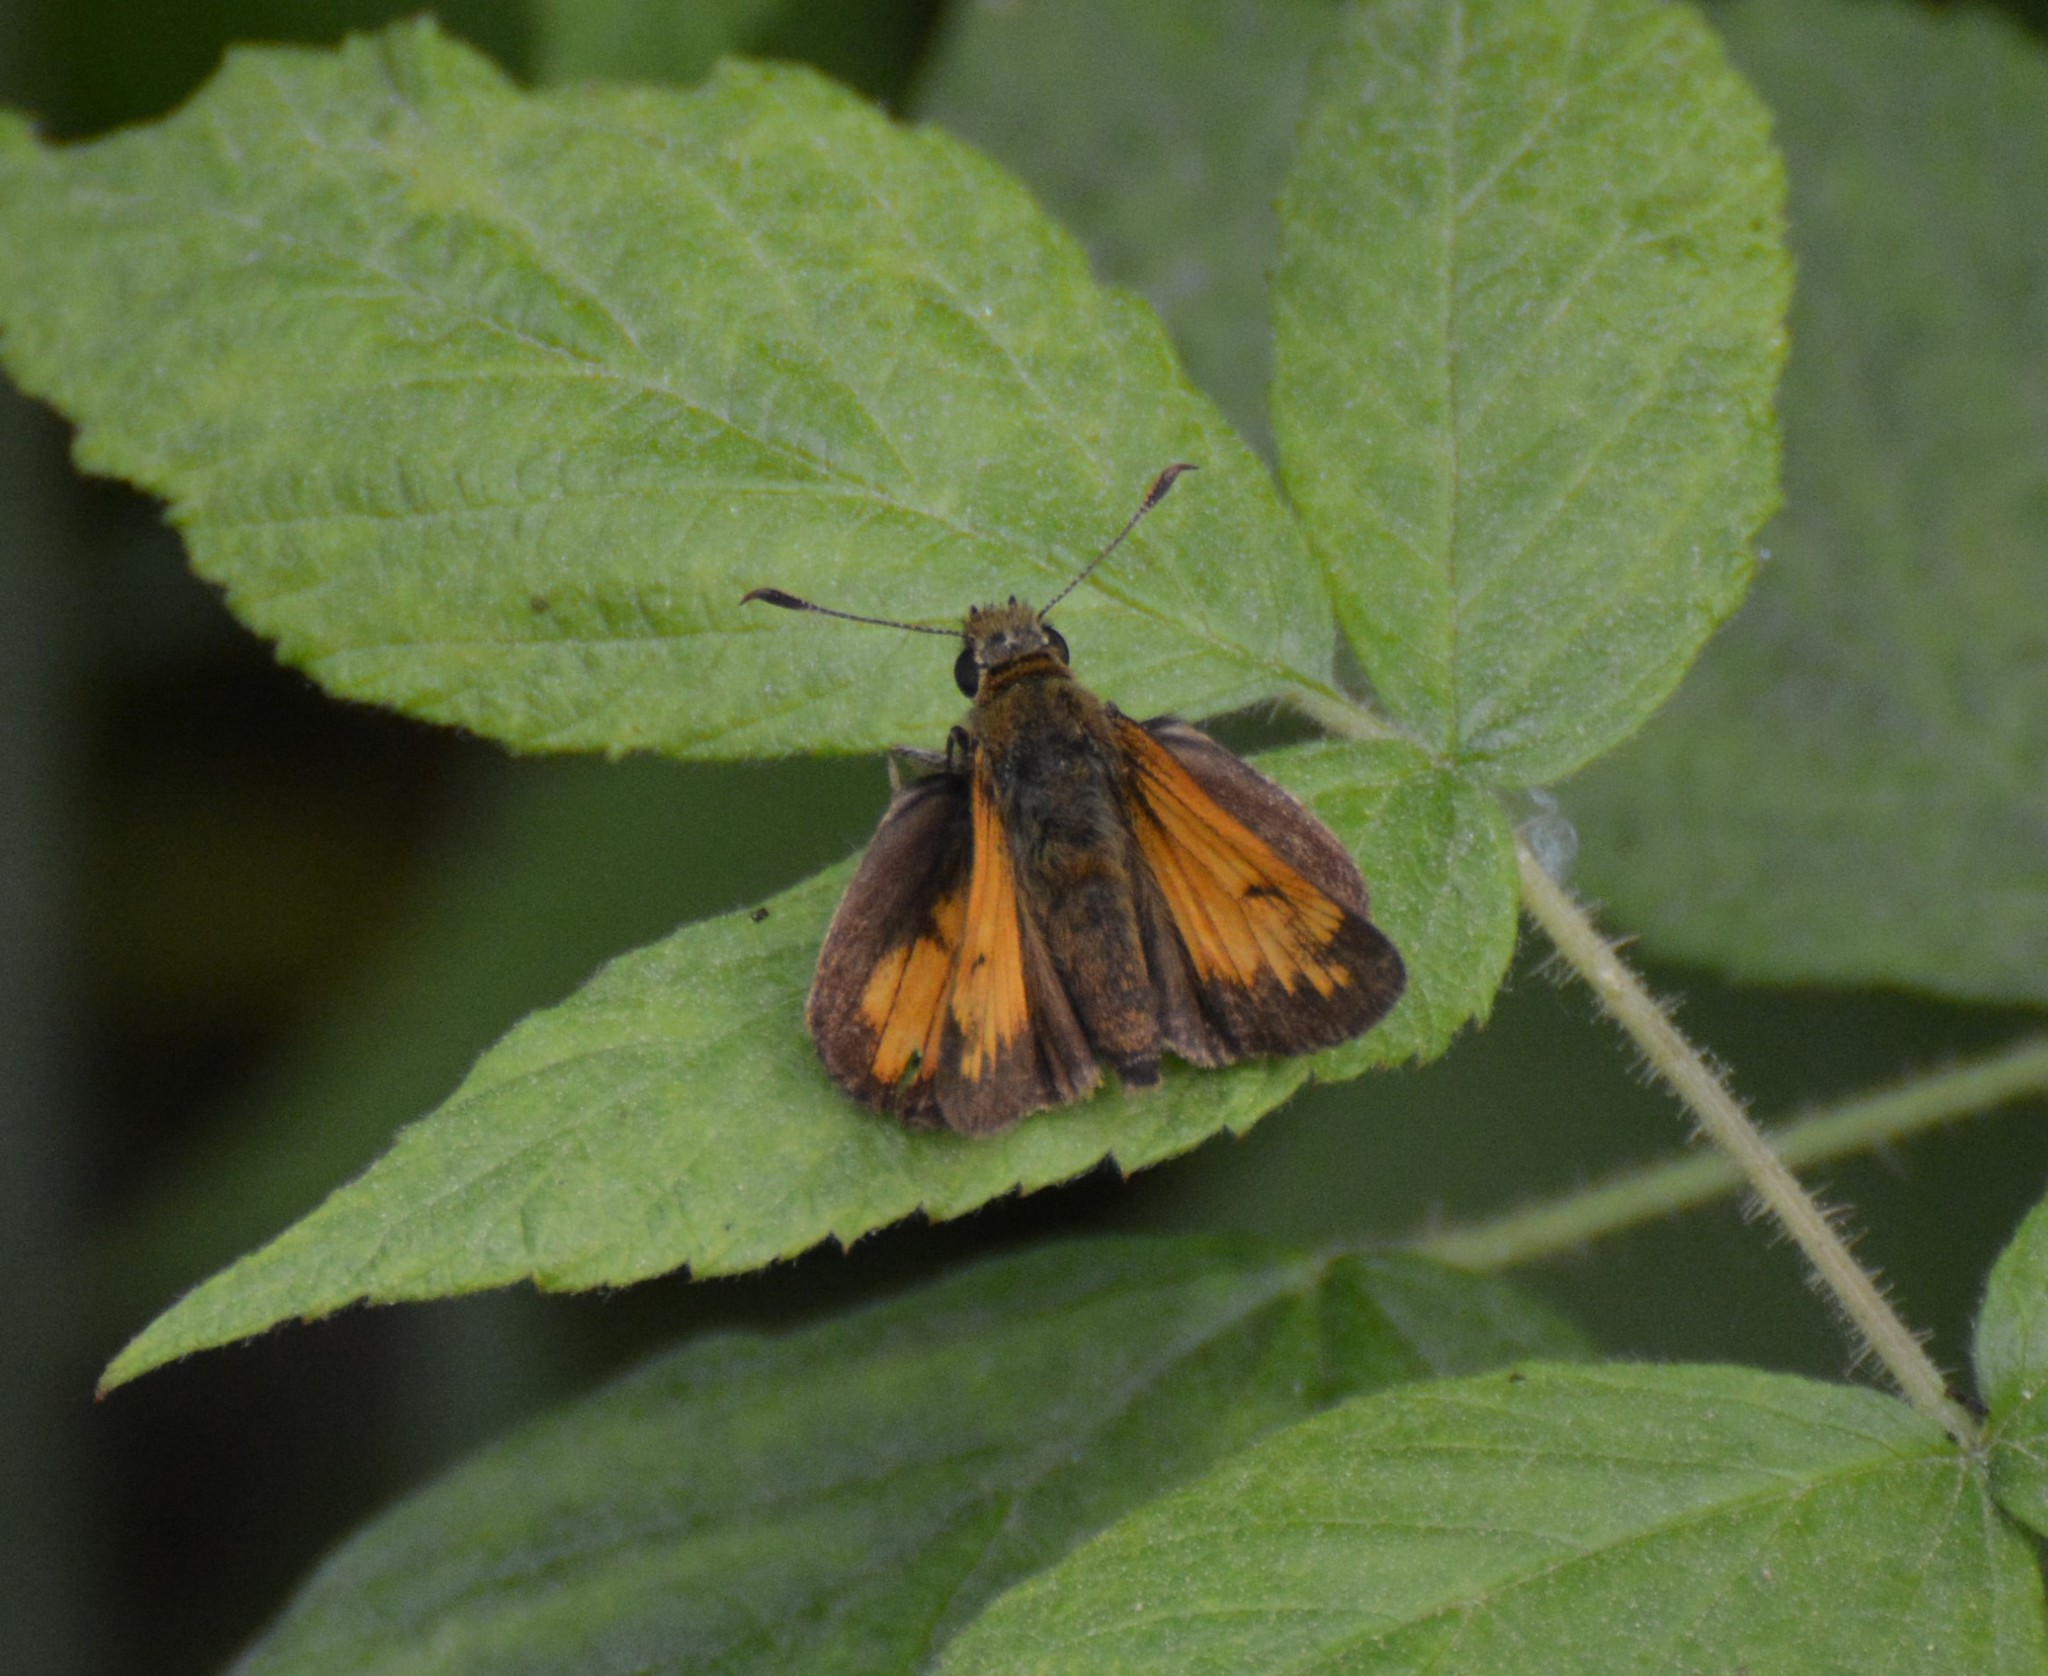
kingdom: Animalia
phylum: Arthropoda
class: Insecta
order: Lepidoptera
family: Hesperiidae
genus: Lon
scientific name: Lon hobomok
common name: Hobomok skipper
